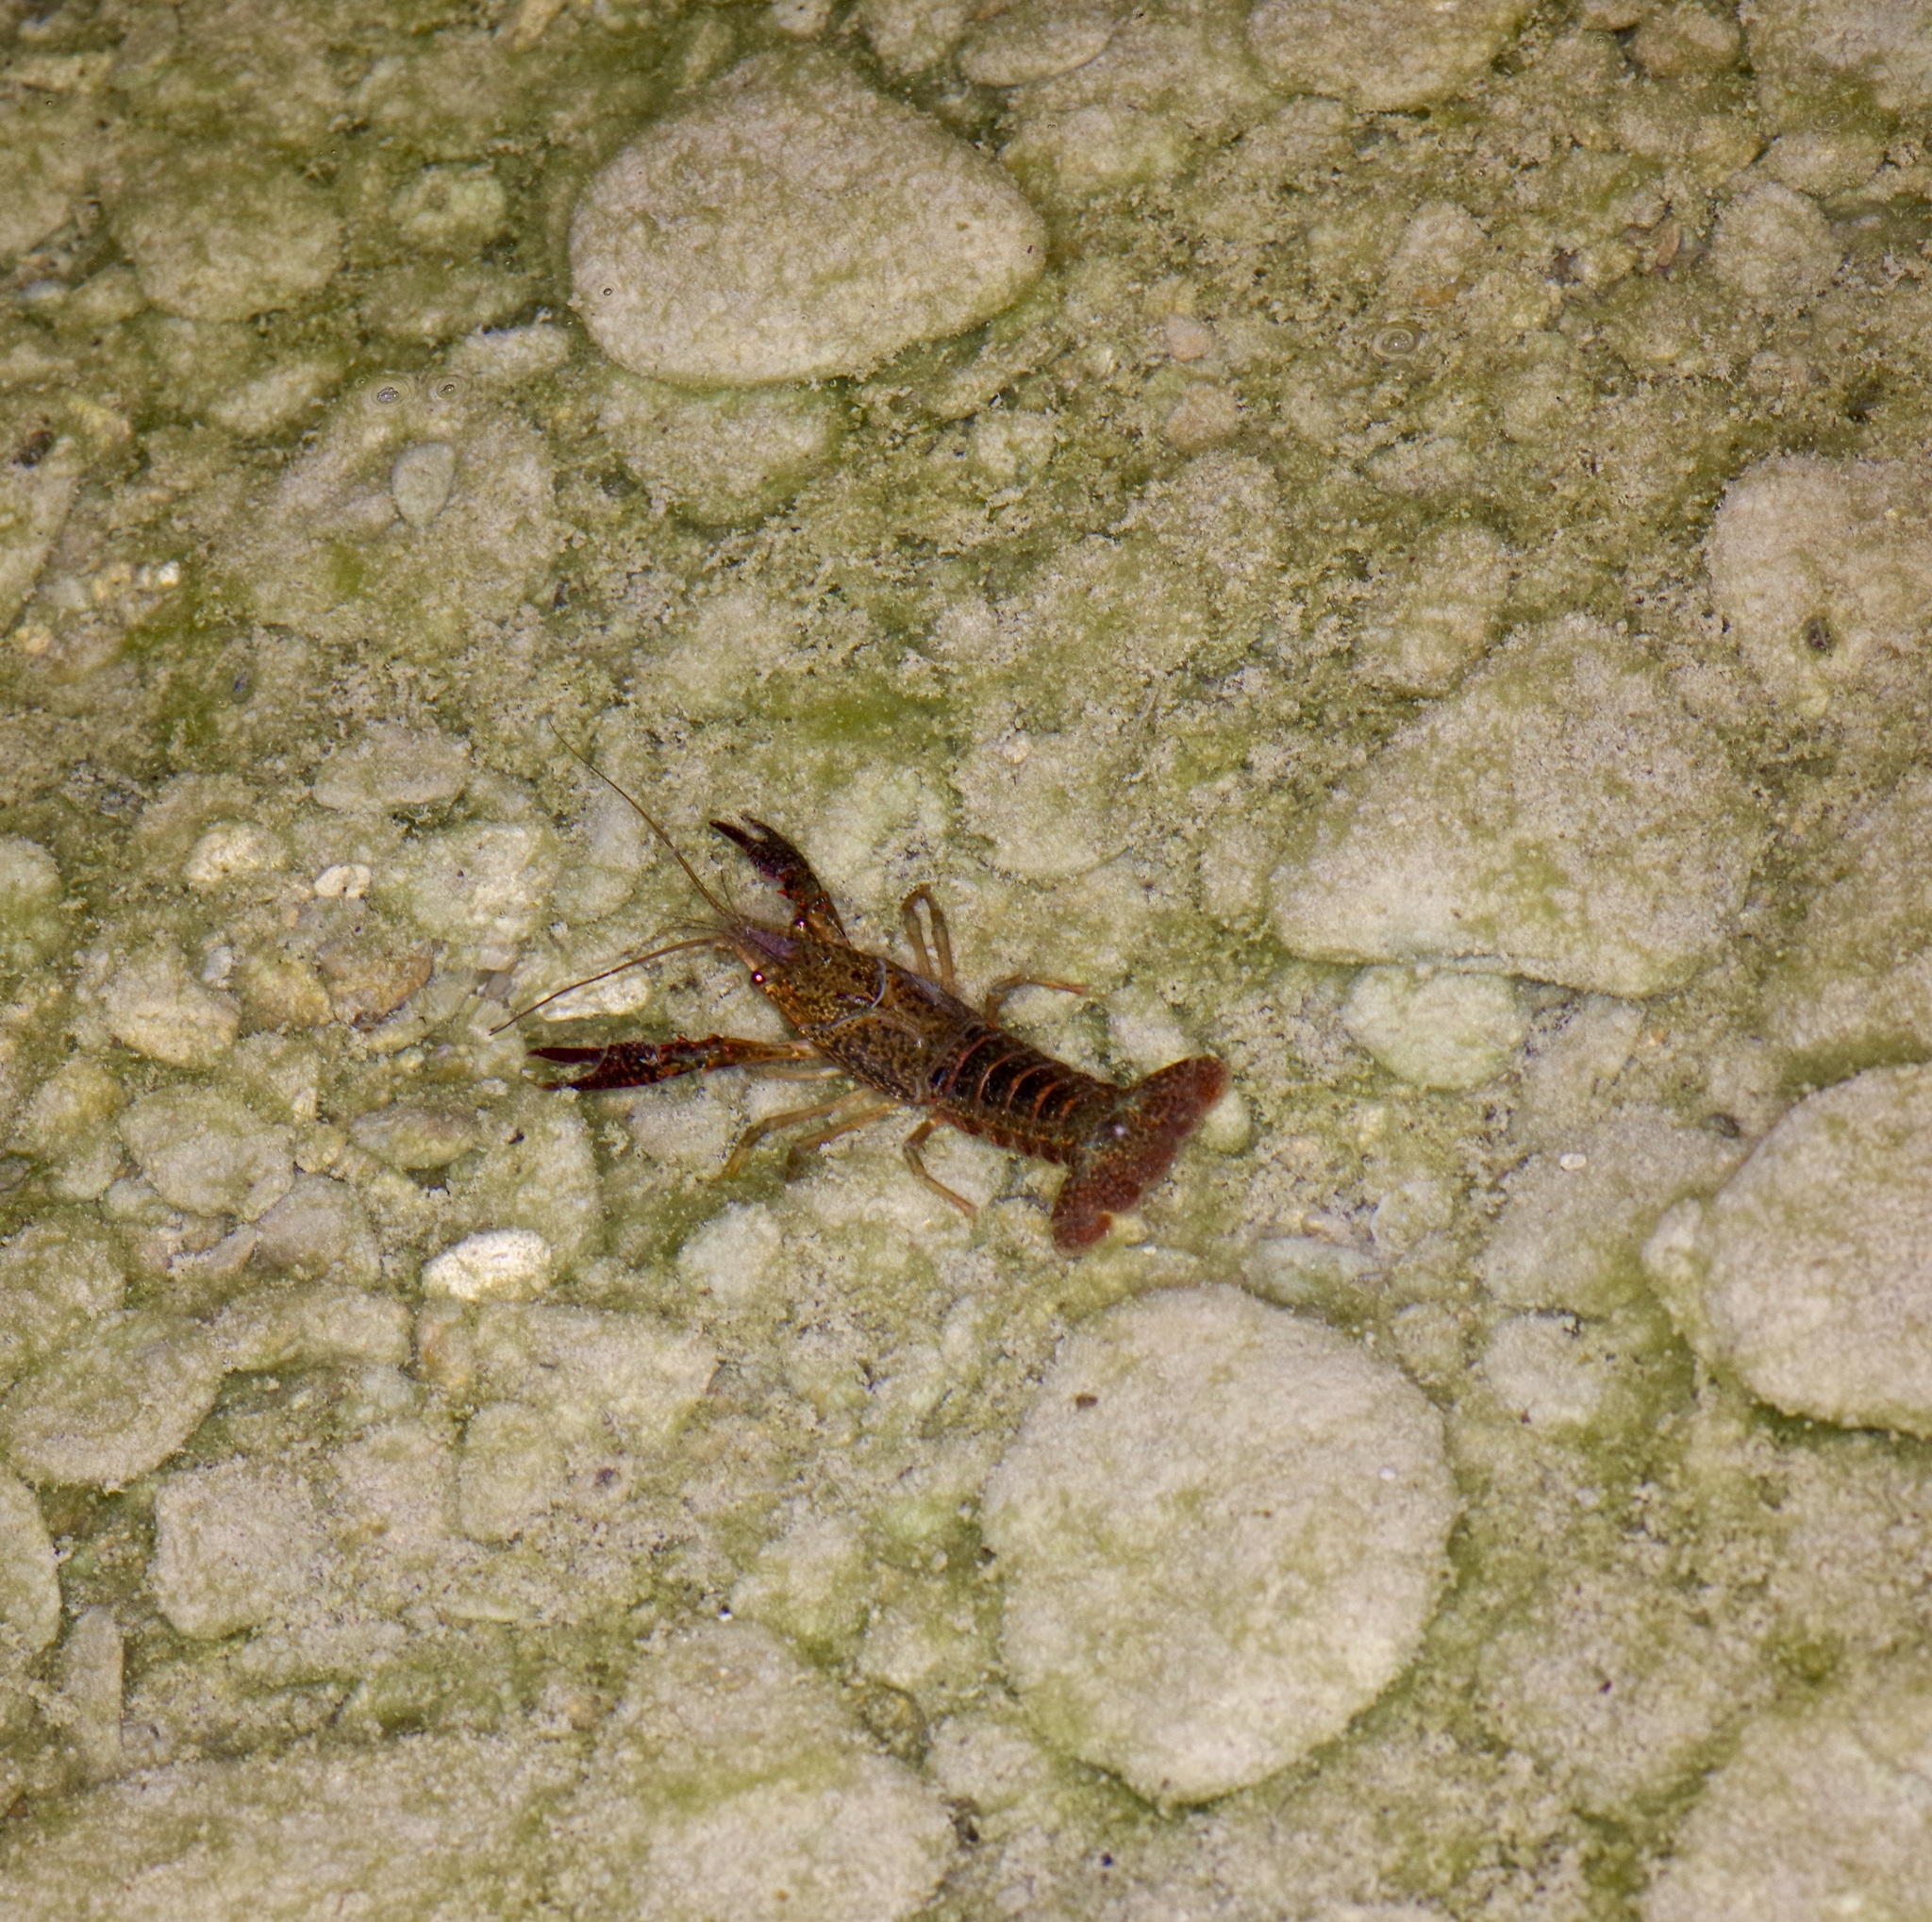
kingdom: Animalia
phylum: Arthropoda
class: Malacostraca
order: Decapoda
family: Cambaridae
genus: Procambarus
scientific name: Procambarus clarkii
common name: Red swamp crayfish
